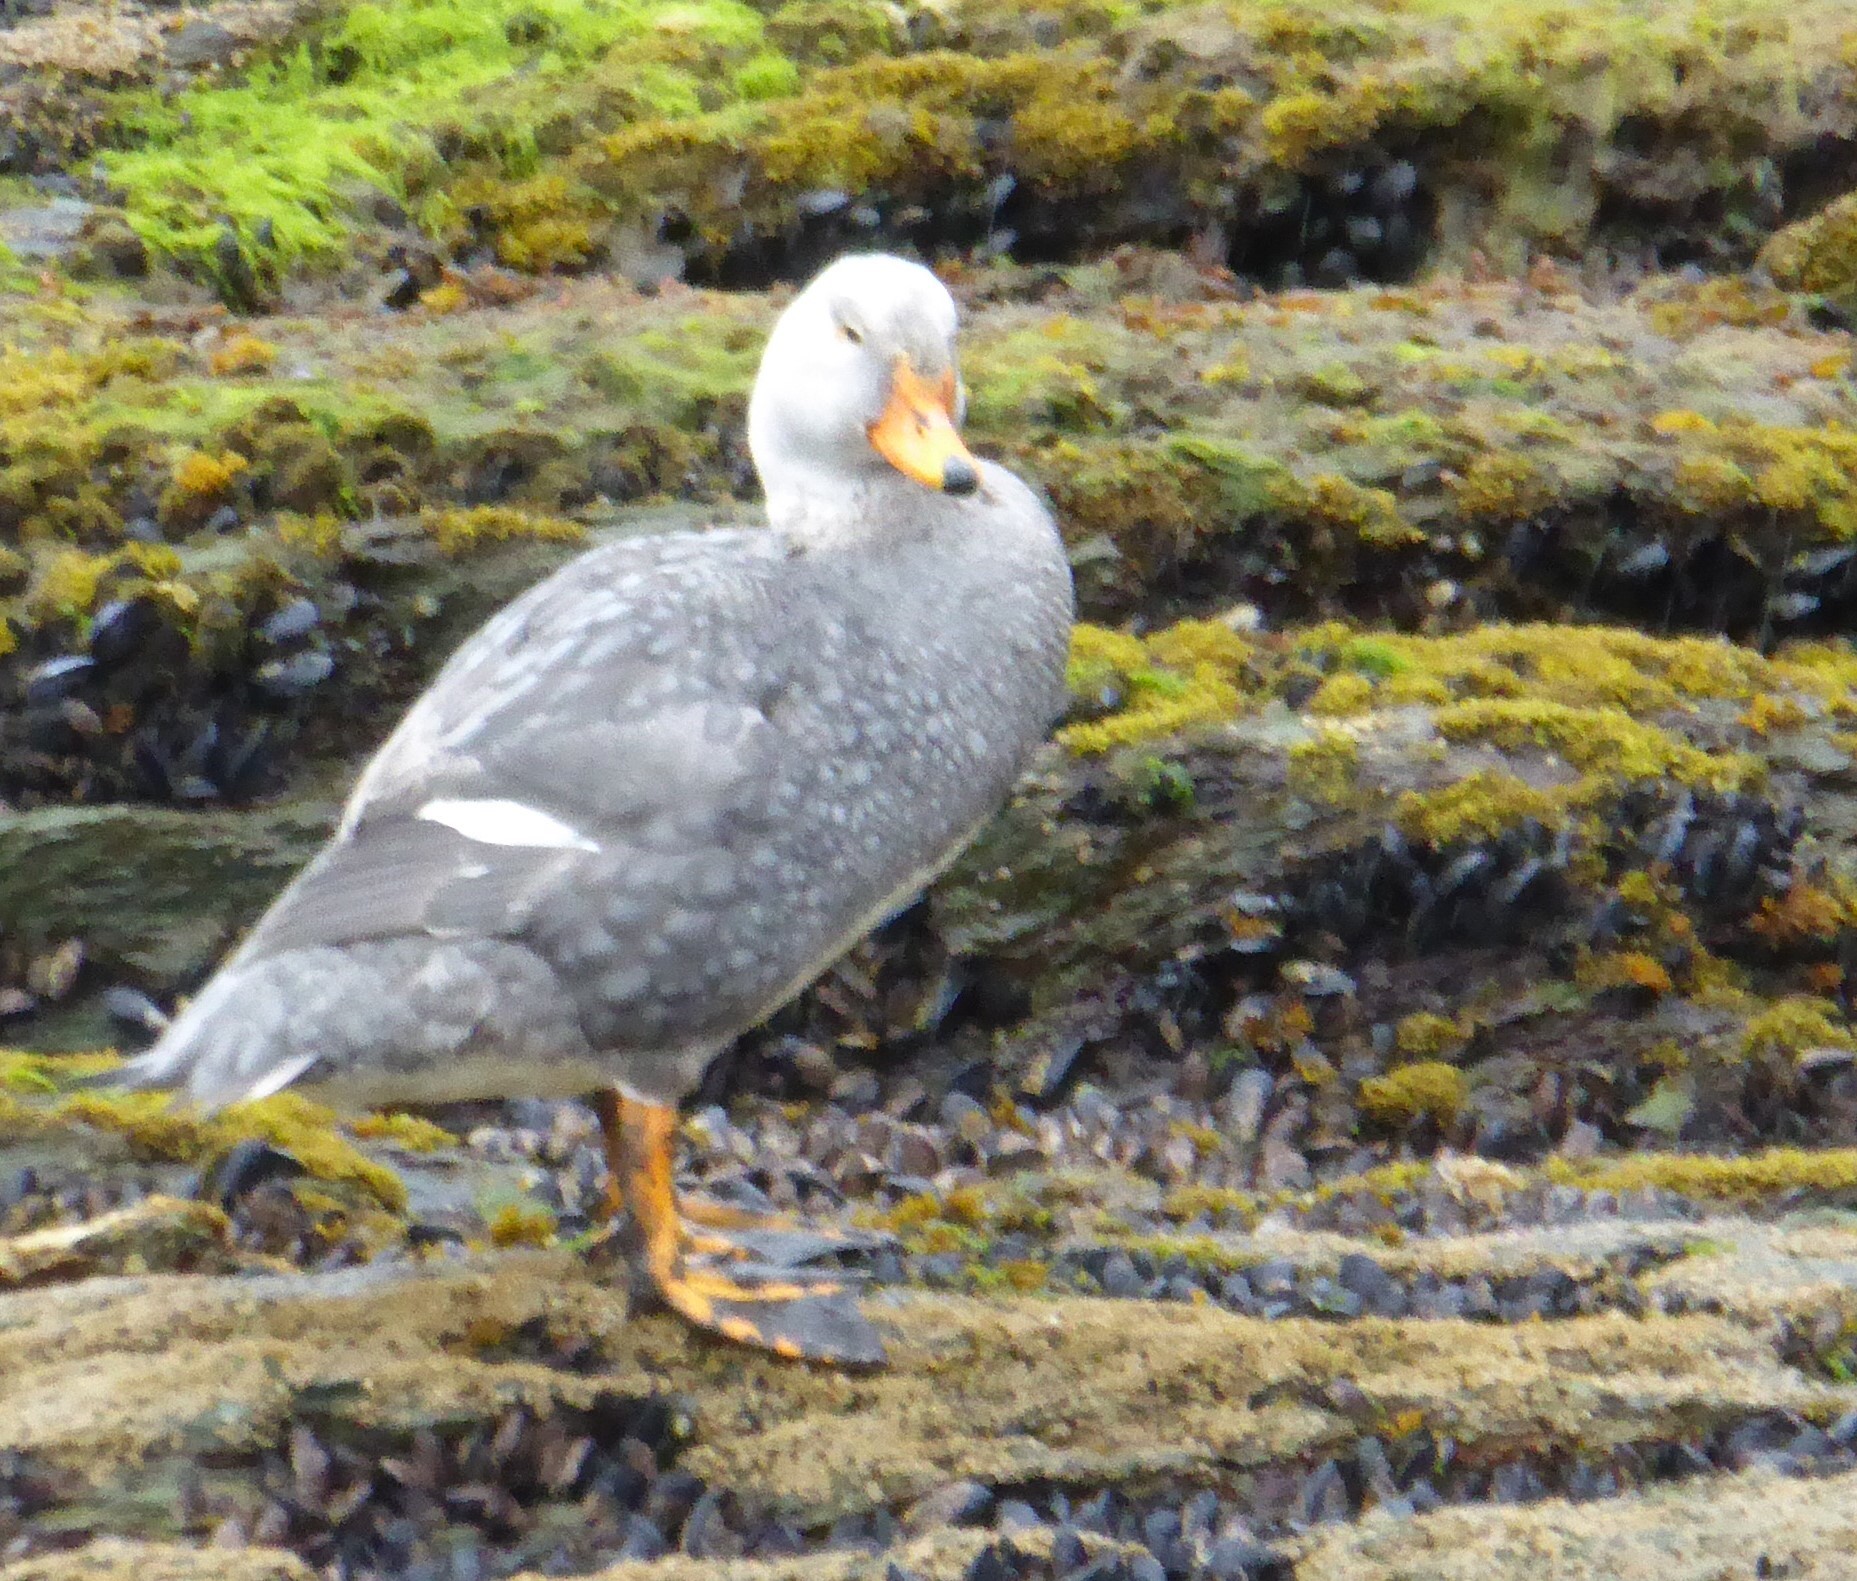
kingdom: Animalia
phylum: Chordata
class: Aves
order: Anseriformes
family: Anatidae
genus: Tachyeres
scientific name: Tachyeres pteneres
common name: Fuegian steamer duck
